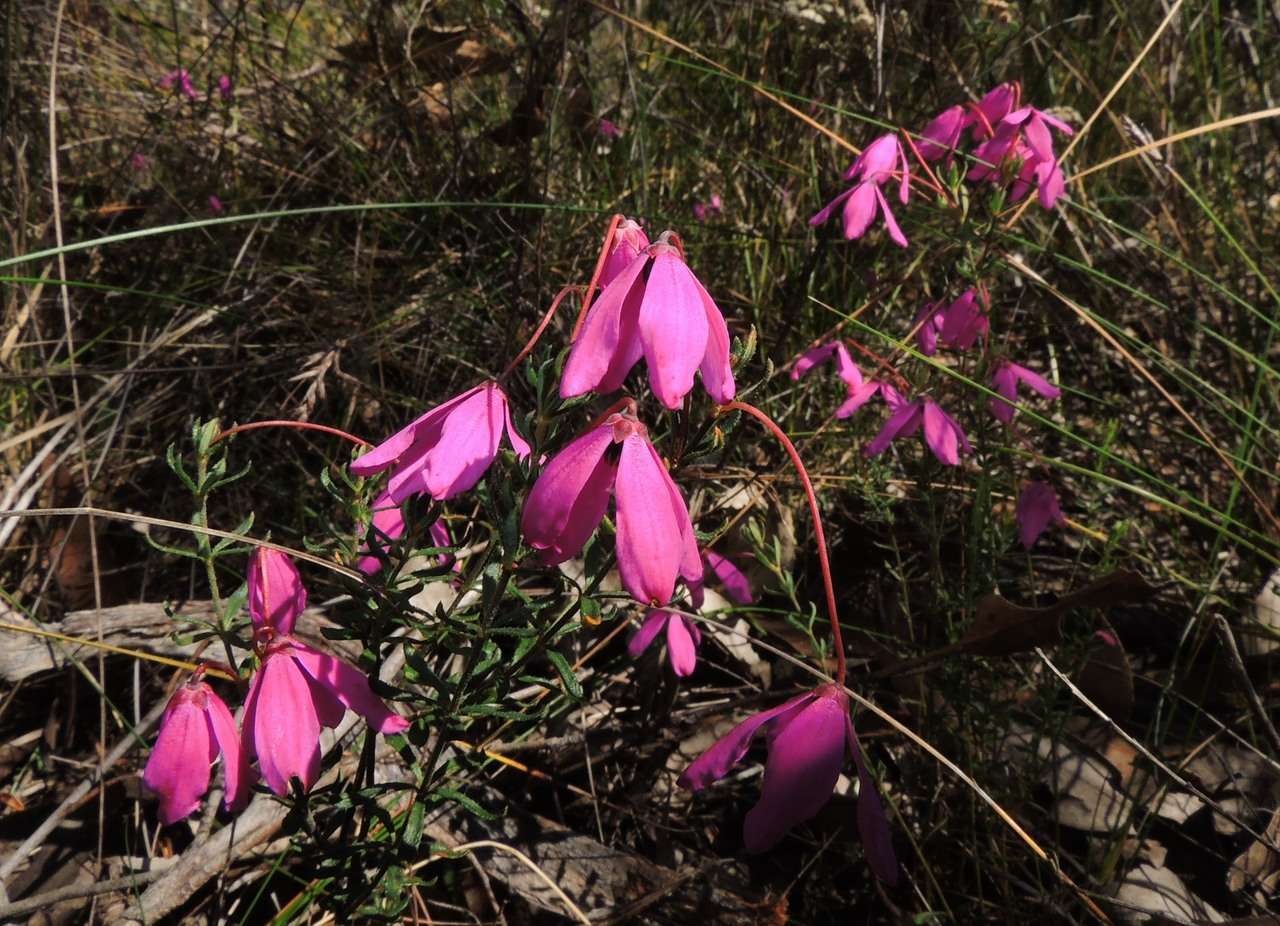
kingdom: Plantae
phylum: Tracheophyta
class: Magnoliopsida
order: Oxalidales
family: Elaeocarpaceae
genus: Tetratheca
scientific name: Tetratheca bauerifolia
